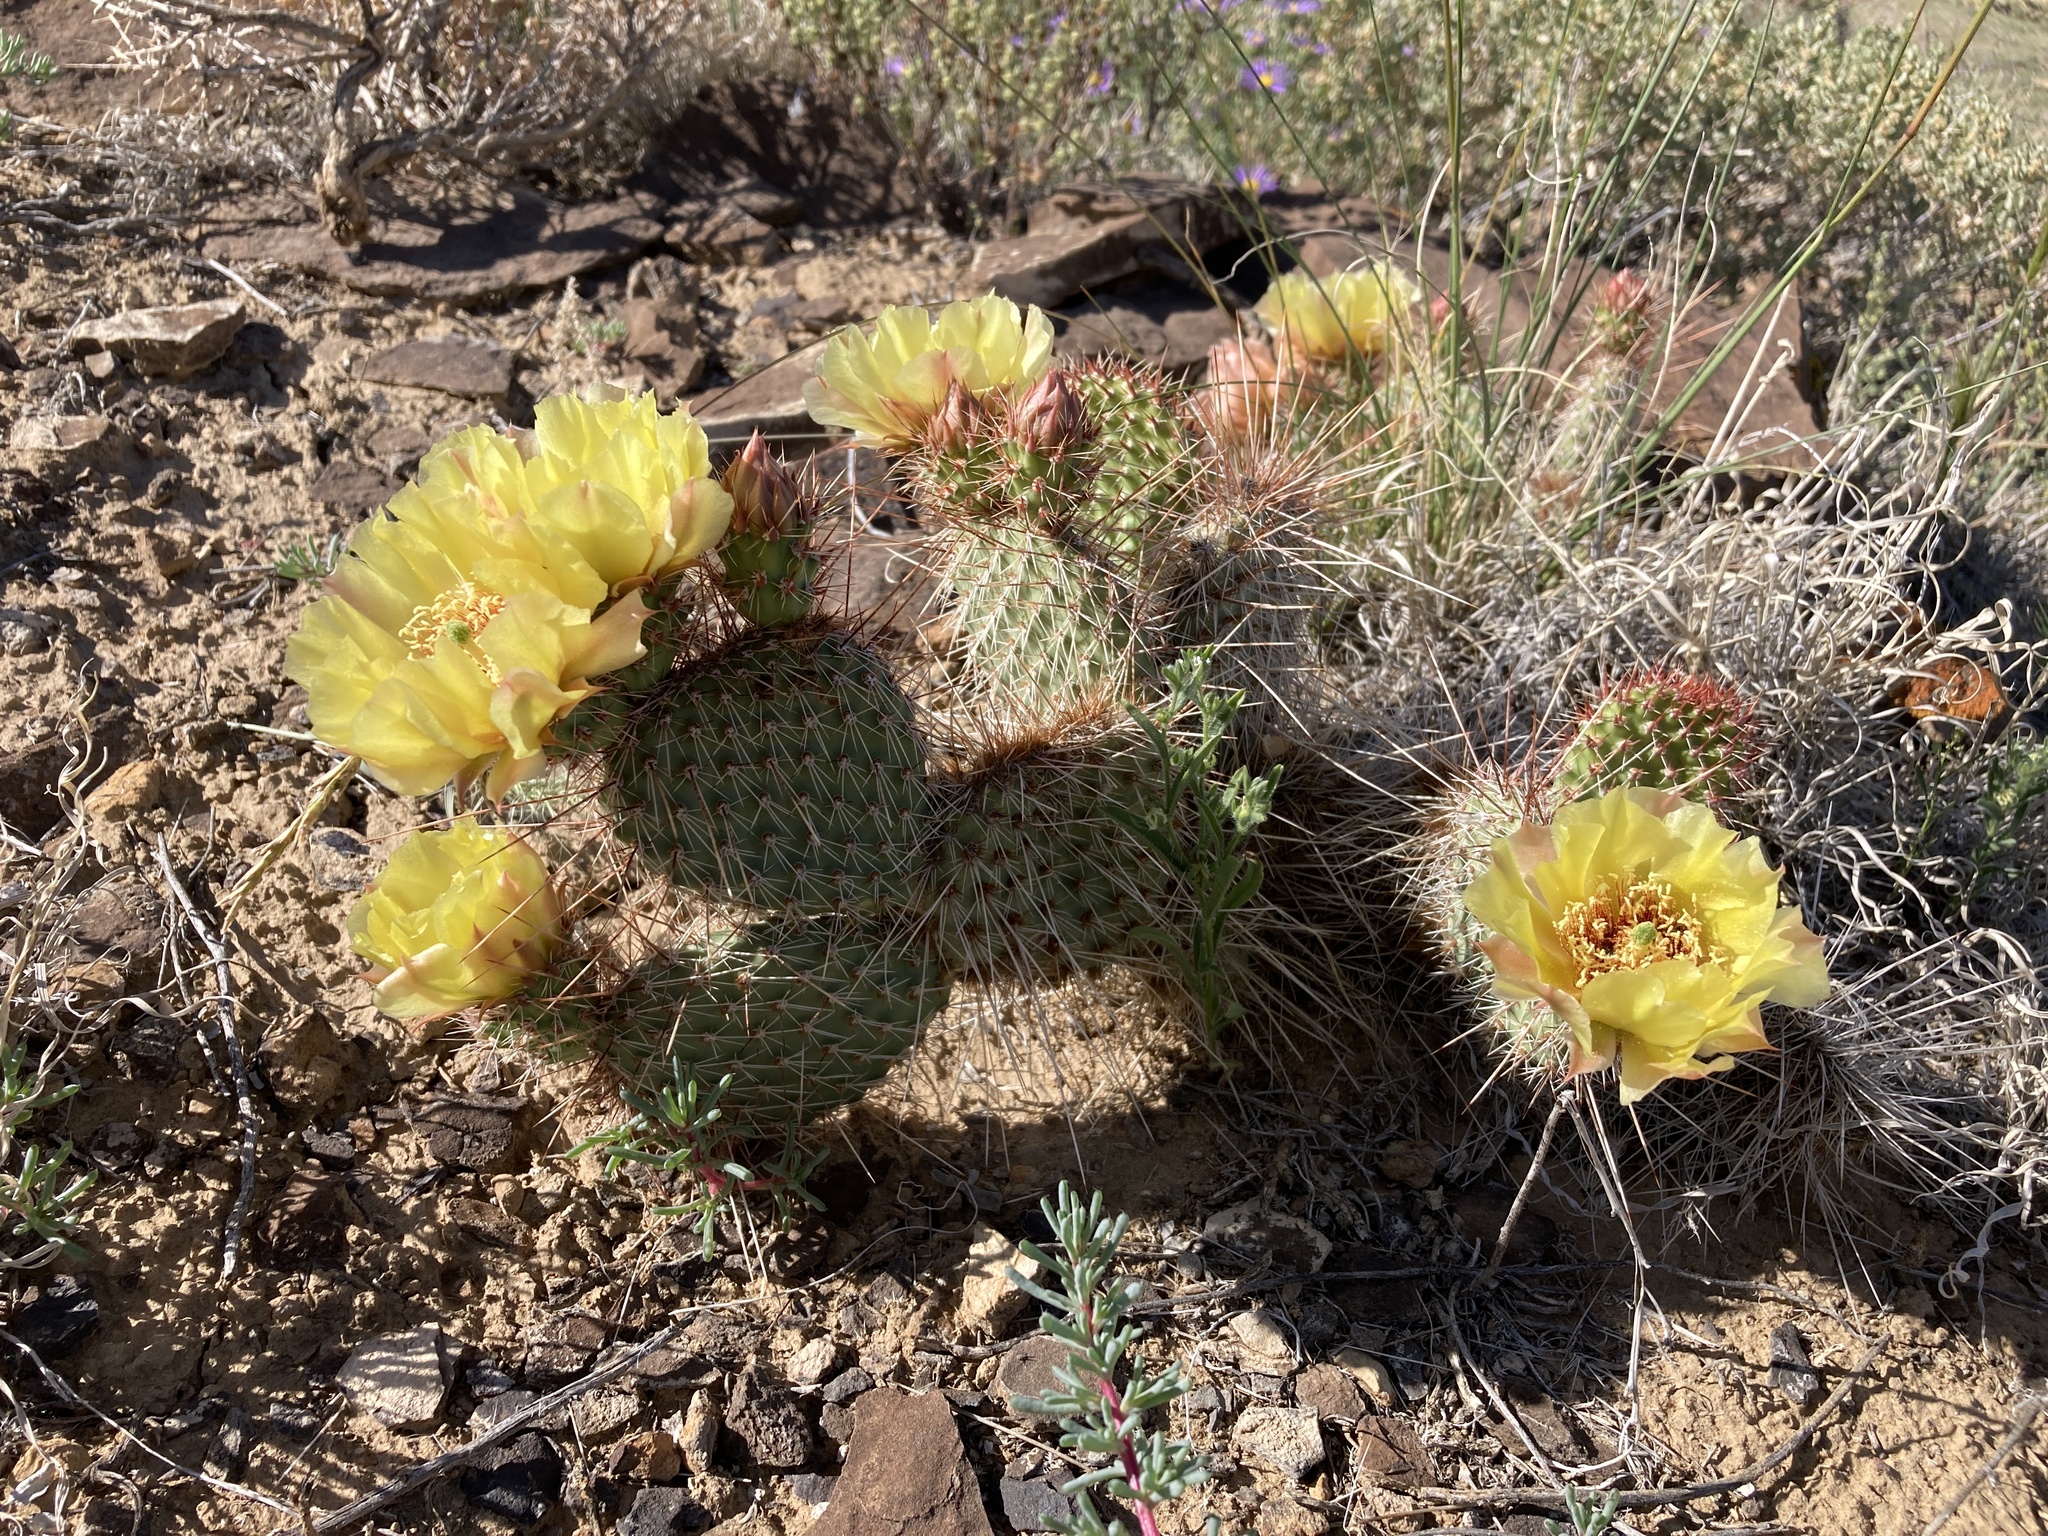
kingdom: Plantae
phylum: Tracheophyta
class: Magnoliopsida
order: Caryophyllales
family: Cactaceae
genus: Opuntia
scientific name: Opuntia polyacantha
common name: Plains prickly-pear
